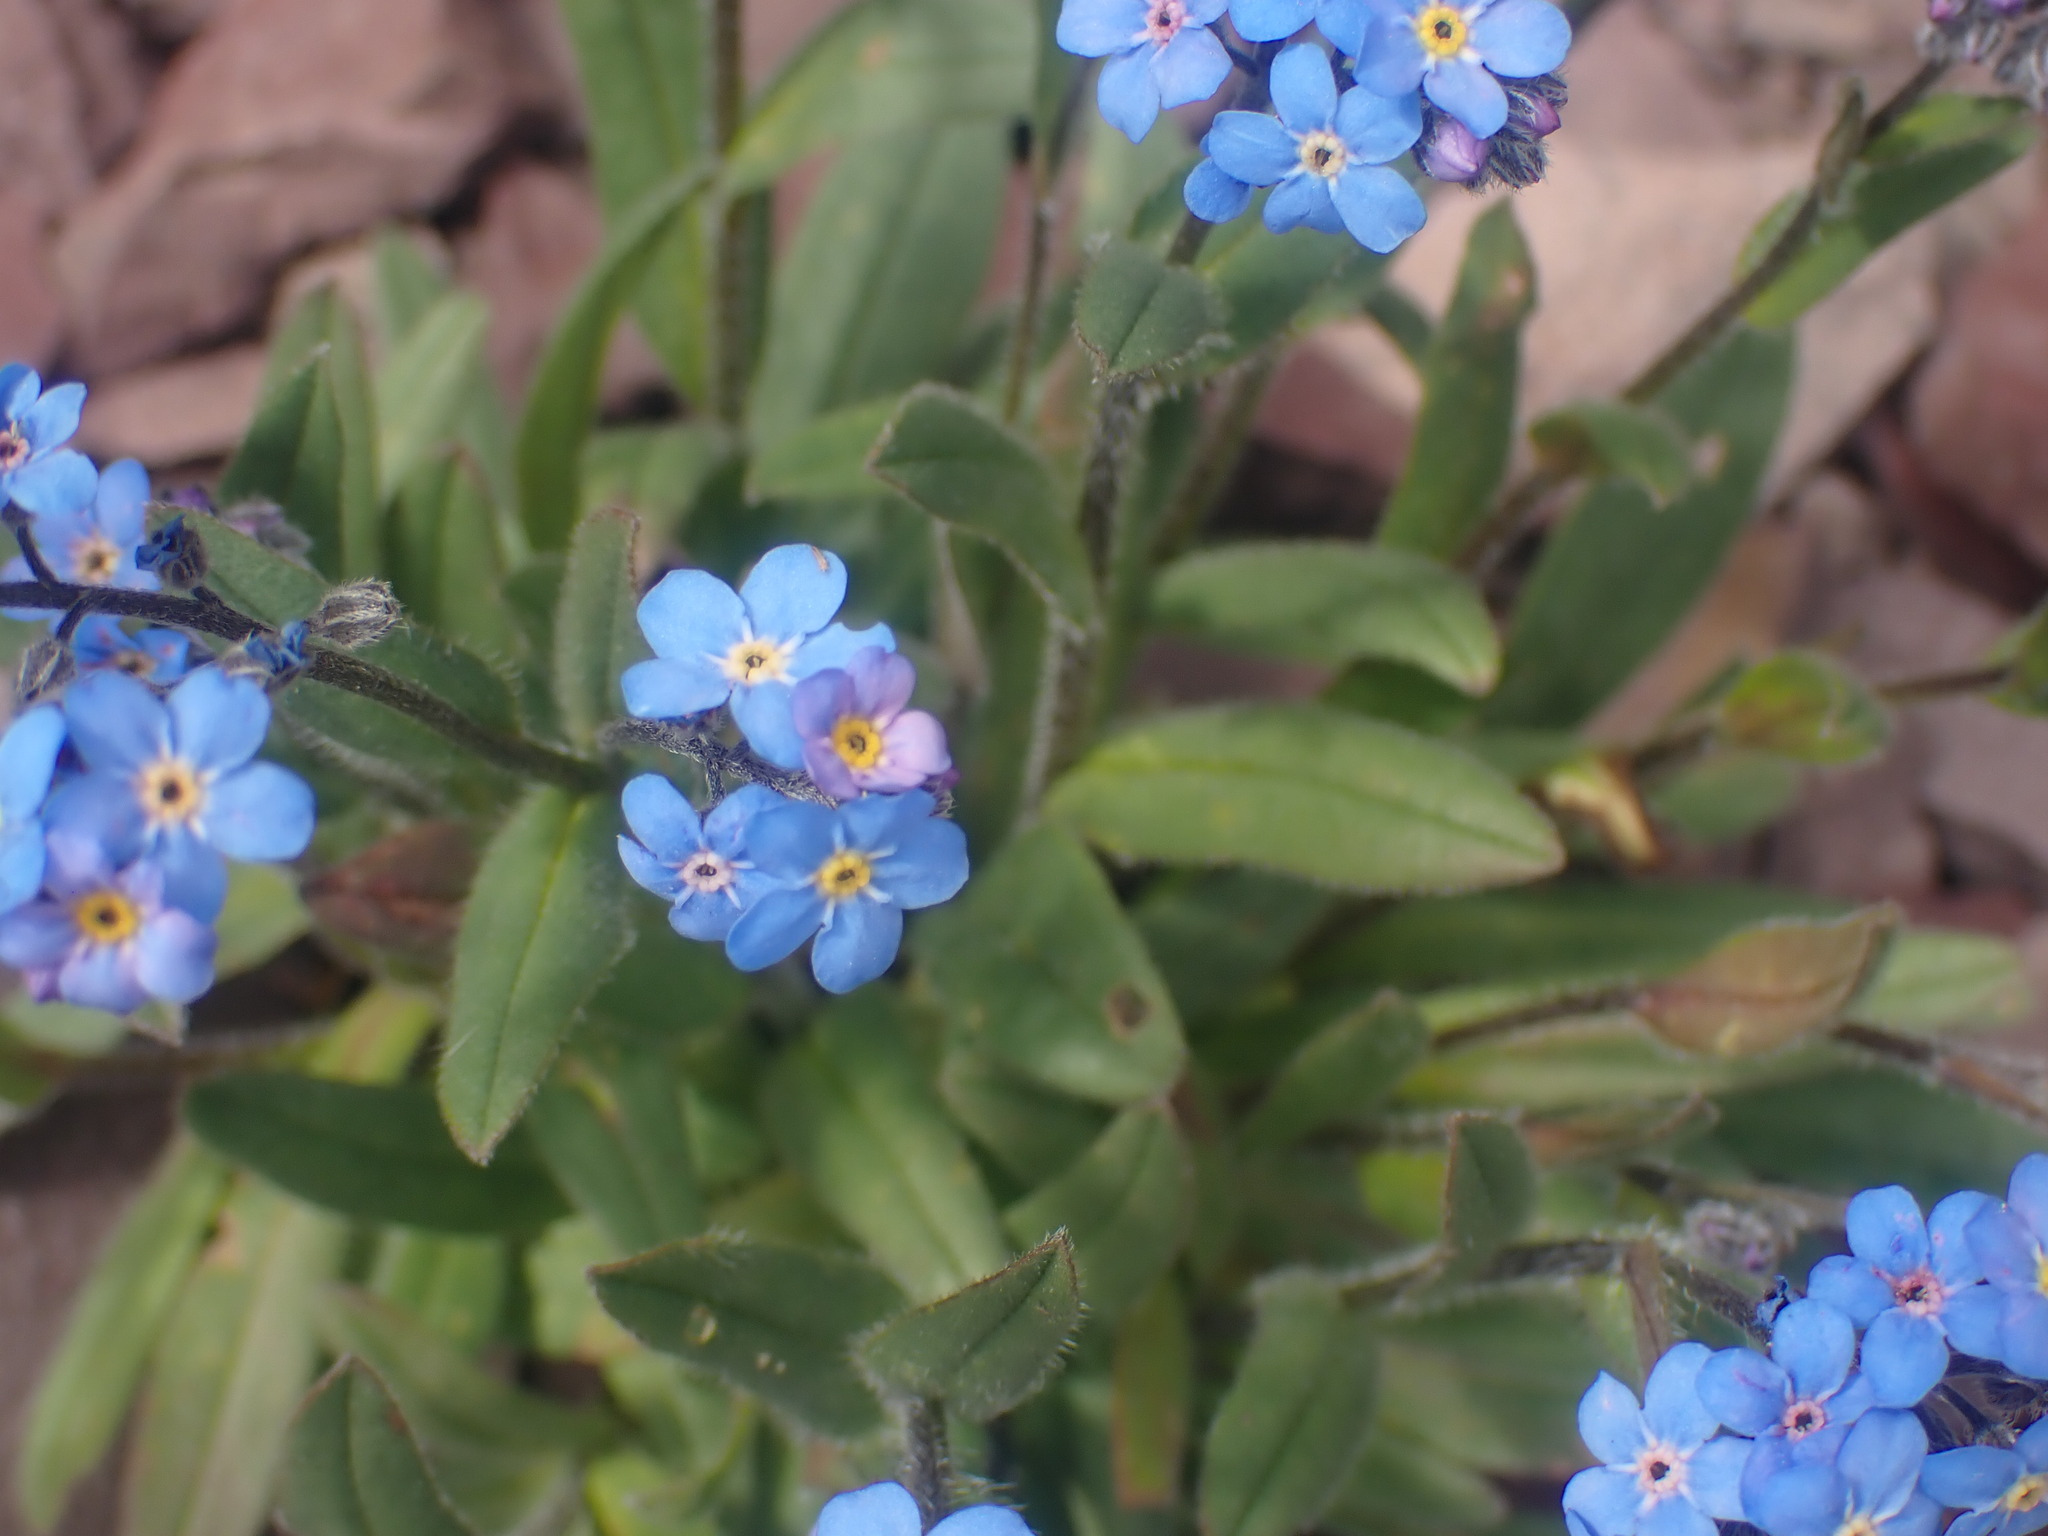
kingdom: Plantae
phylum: Tracheophyta
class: Magnoliopsida
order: Boraginales
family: Boraginaceae
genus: Myosotis
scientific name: Myosotis asiatica
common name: Asian forget-me-not
